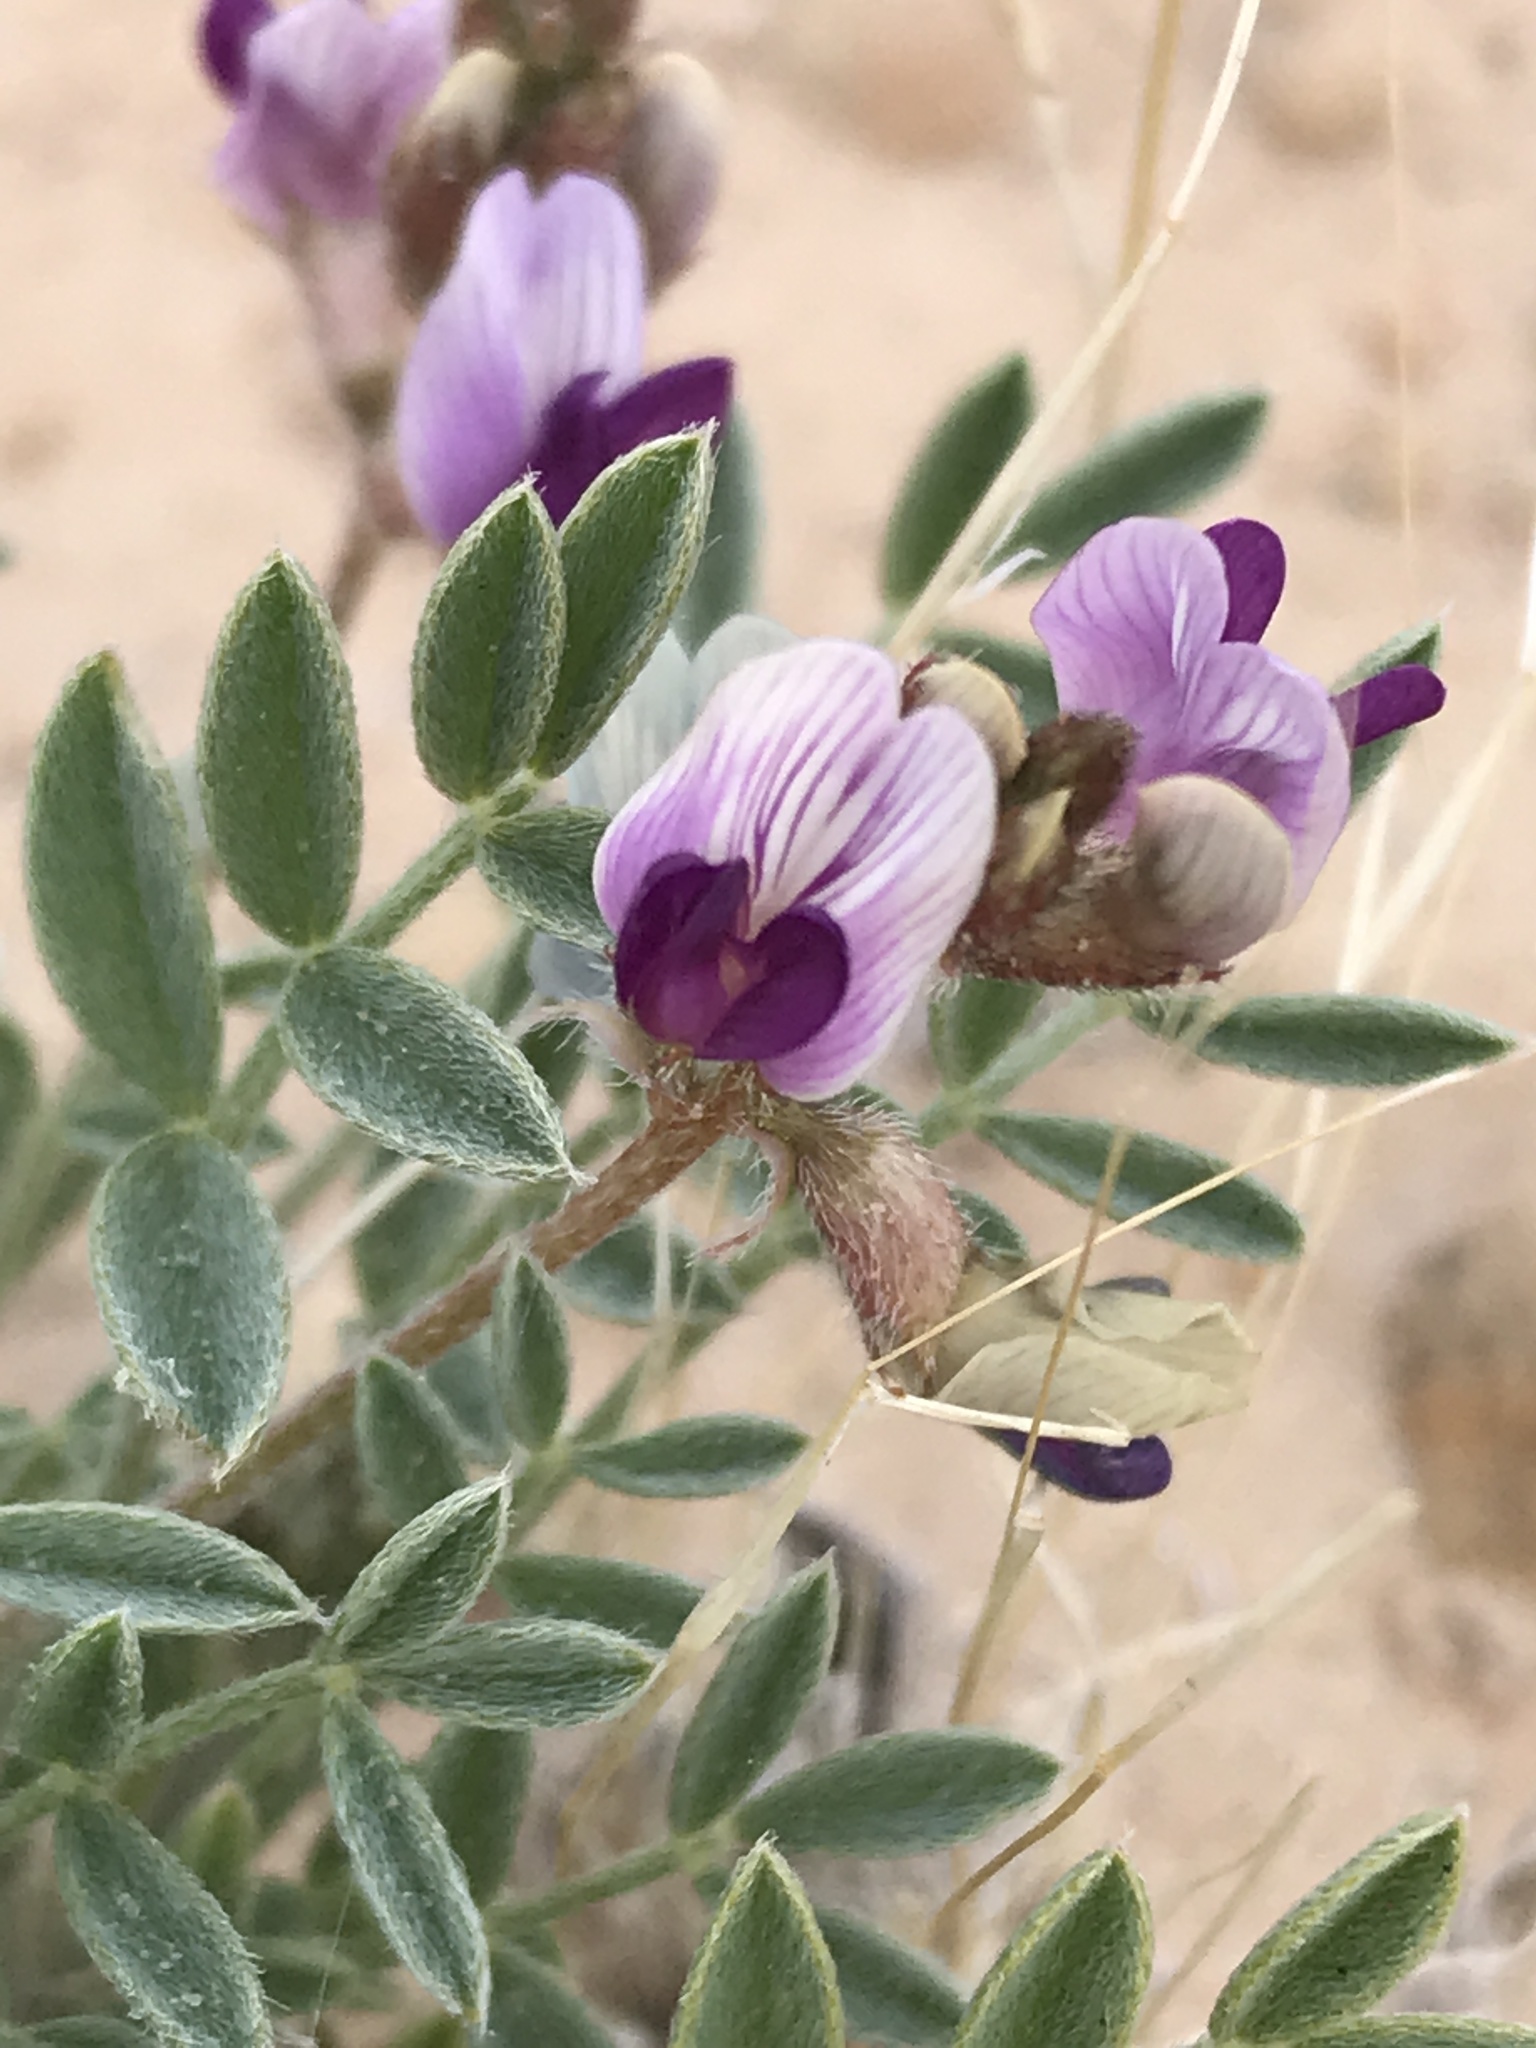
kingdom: Plantae
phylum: Tracheophyta
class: Magnoliopsida
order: Fabales
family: Fabaceae
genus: Astragalus
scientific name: Astragalus desperatus
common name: Rimrock milk-vetch
